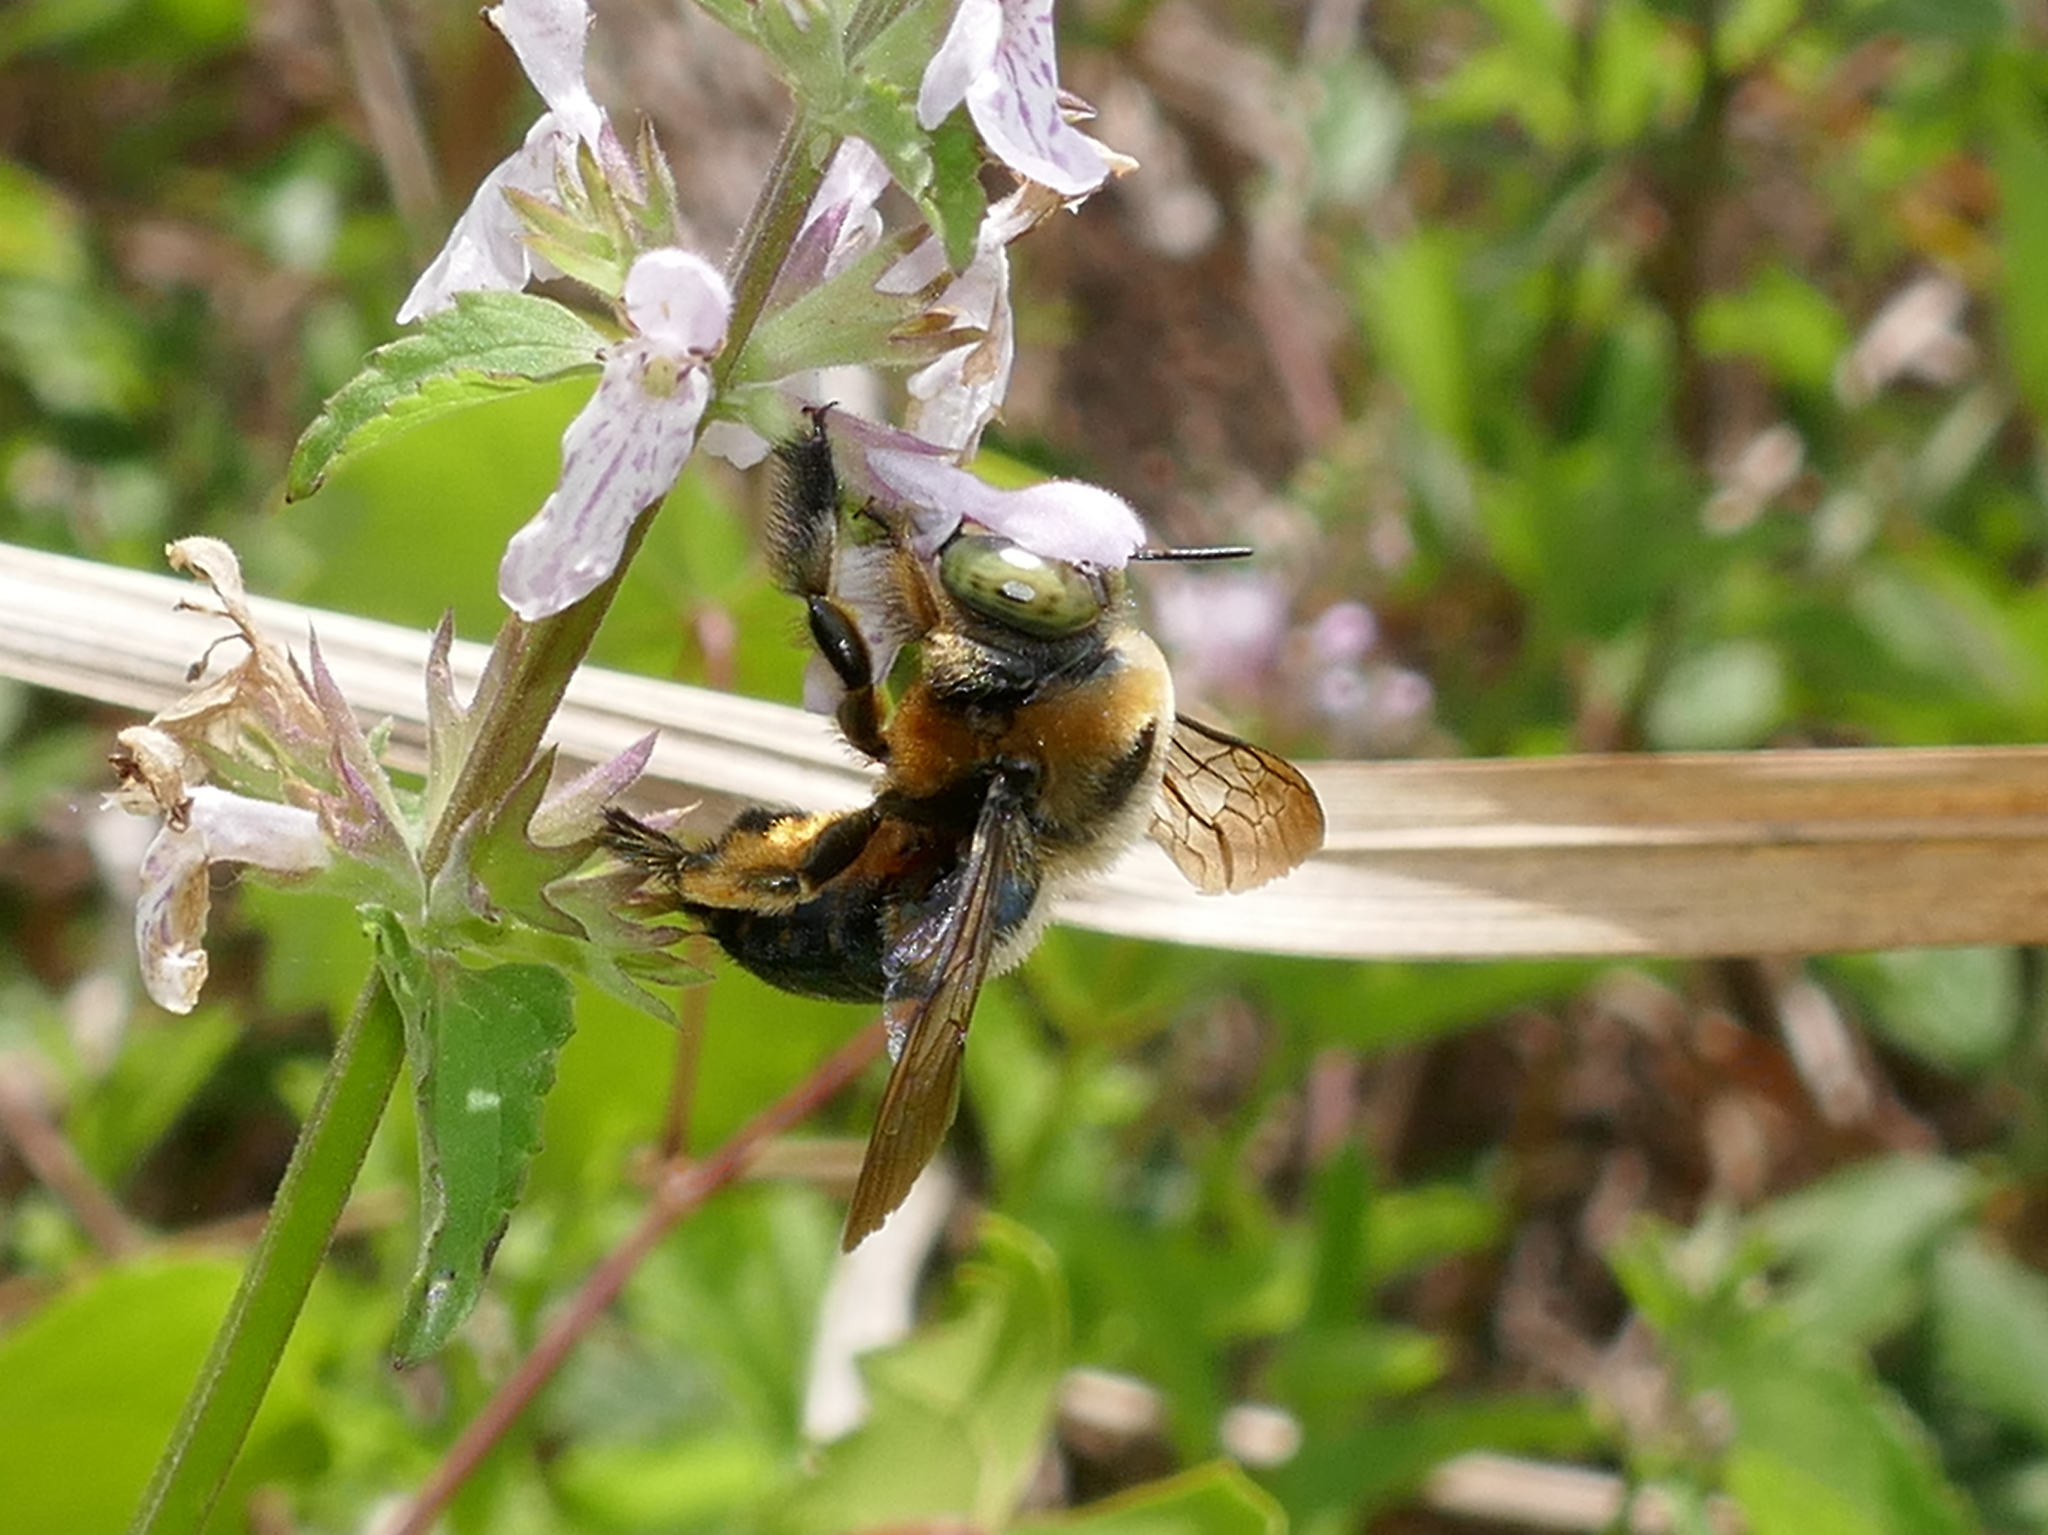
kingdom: Animalia
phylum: Arthropoda
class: Insecta
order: Hymenoptera
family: Apidae
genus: Xylocopa
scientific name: Xylocopa micans
